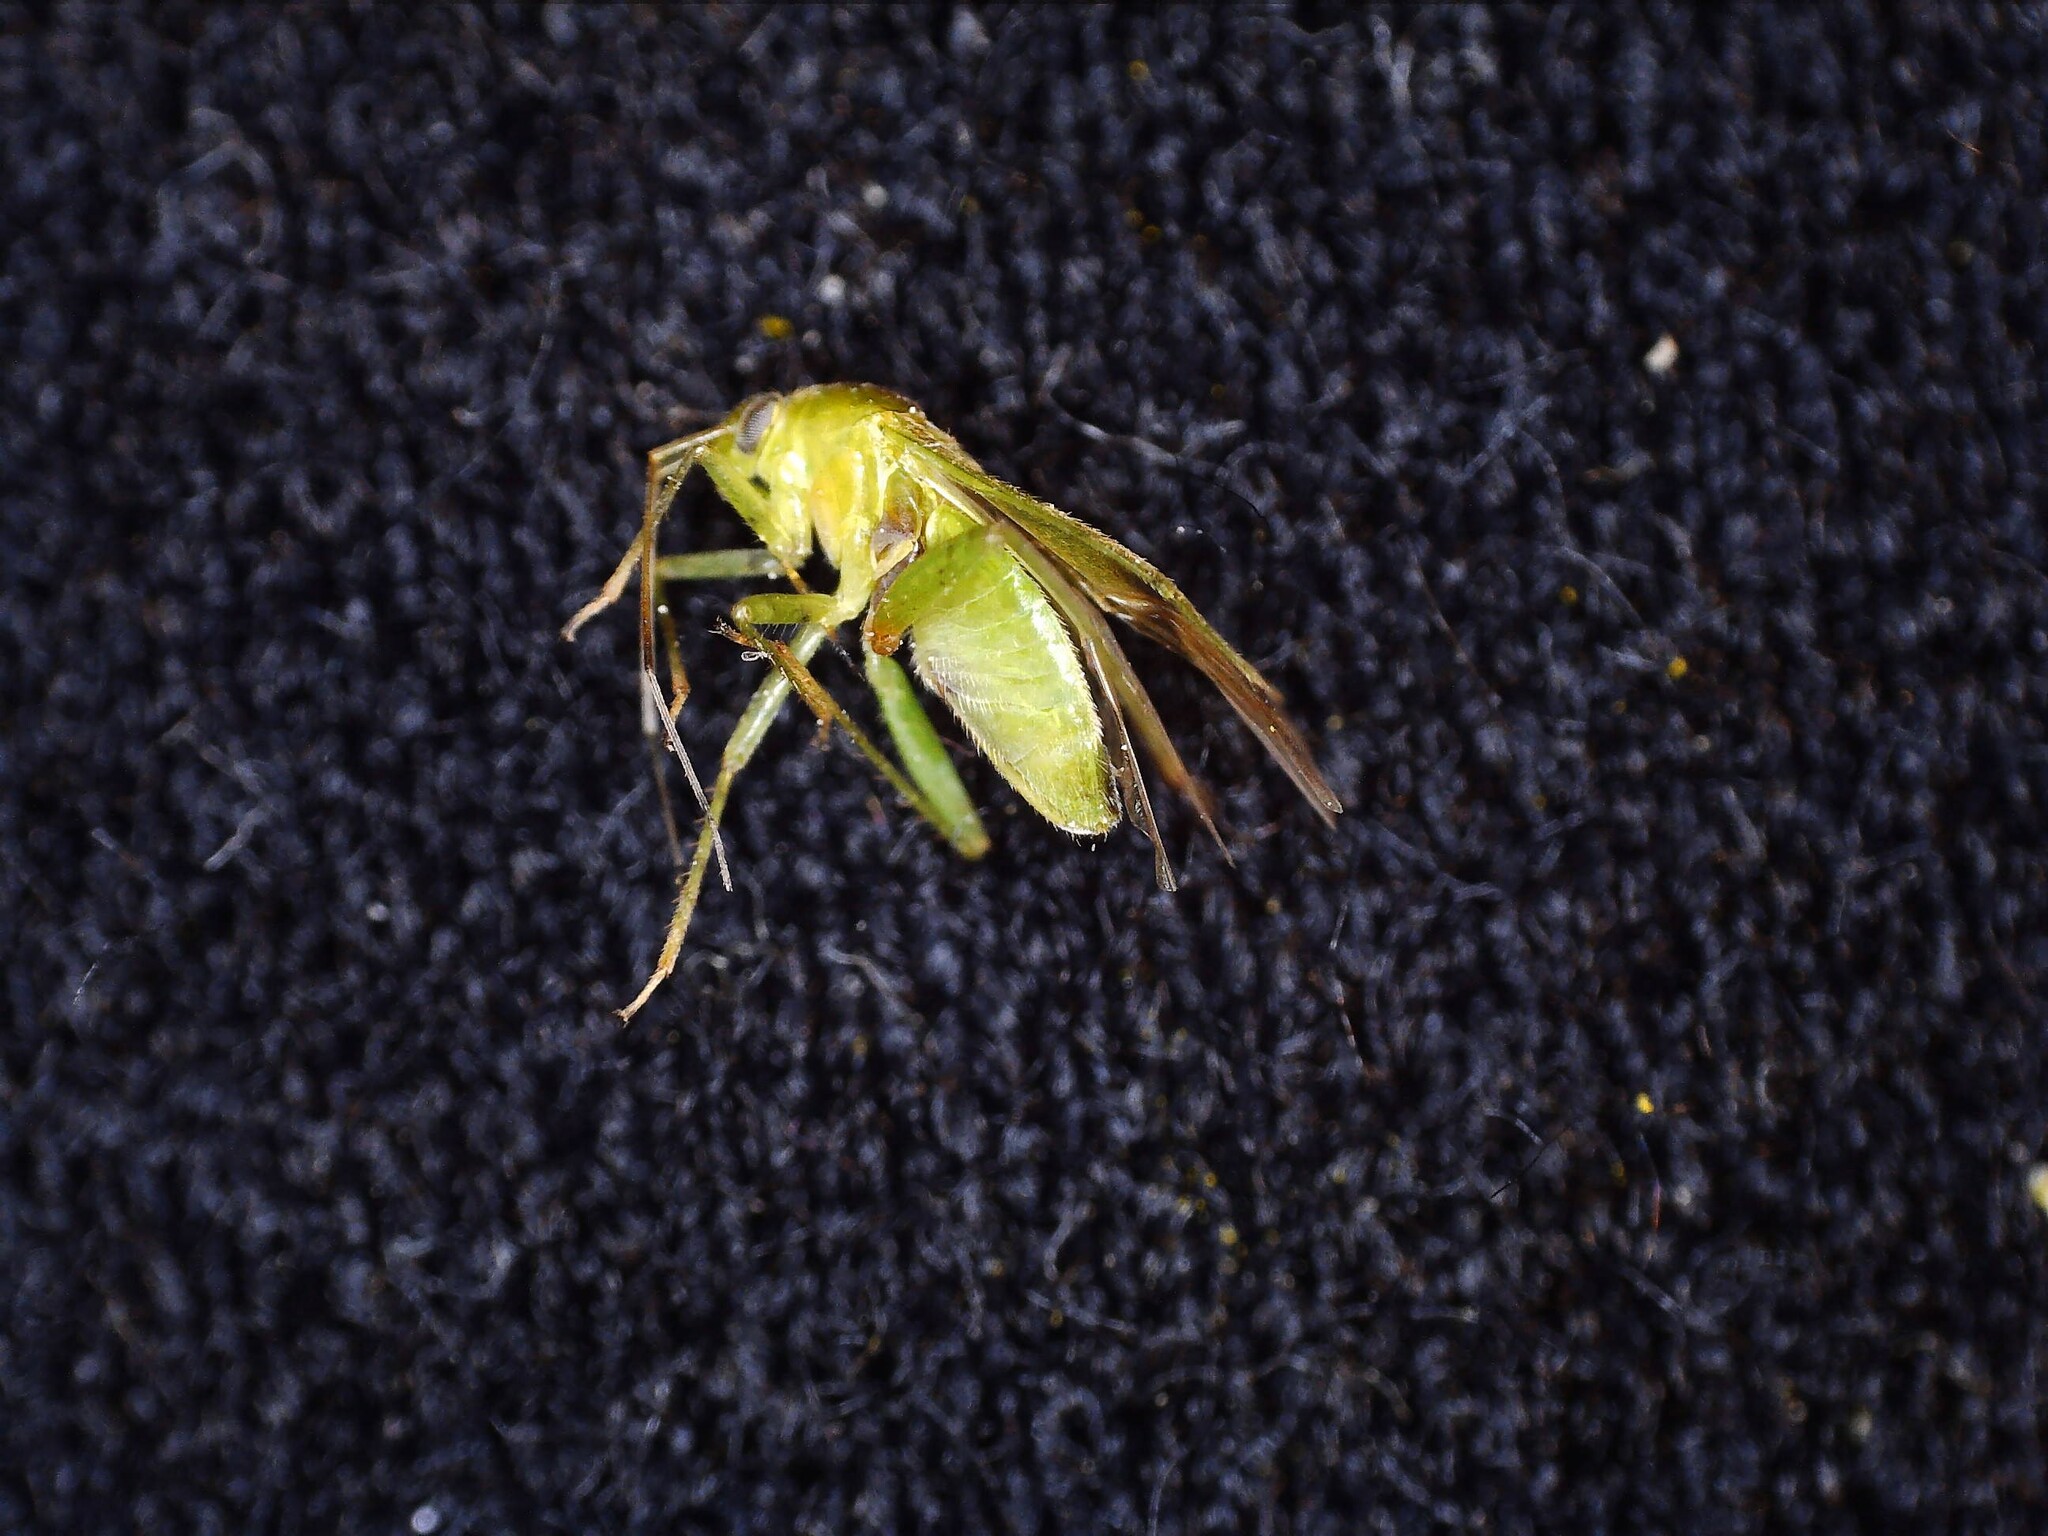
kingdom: Animalia
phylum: Arthropoda
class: Insecta
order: Hemiptera
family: Miridae
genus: Neolygus
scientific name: Neolygus viridis
